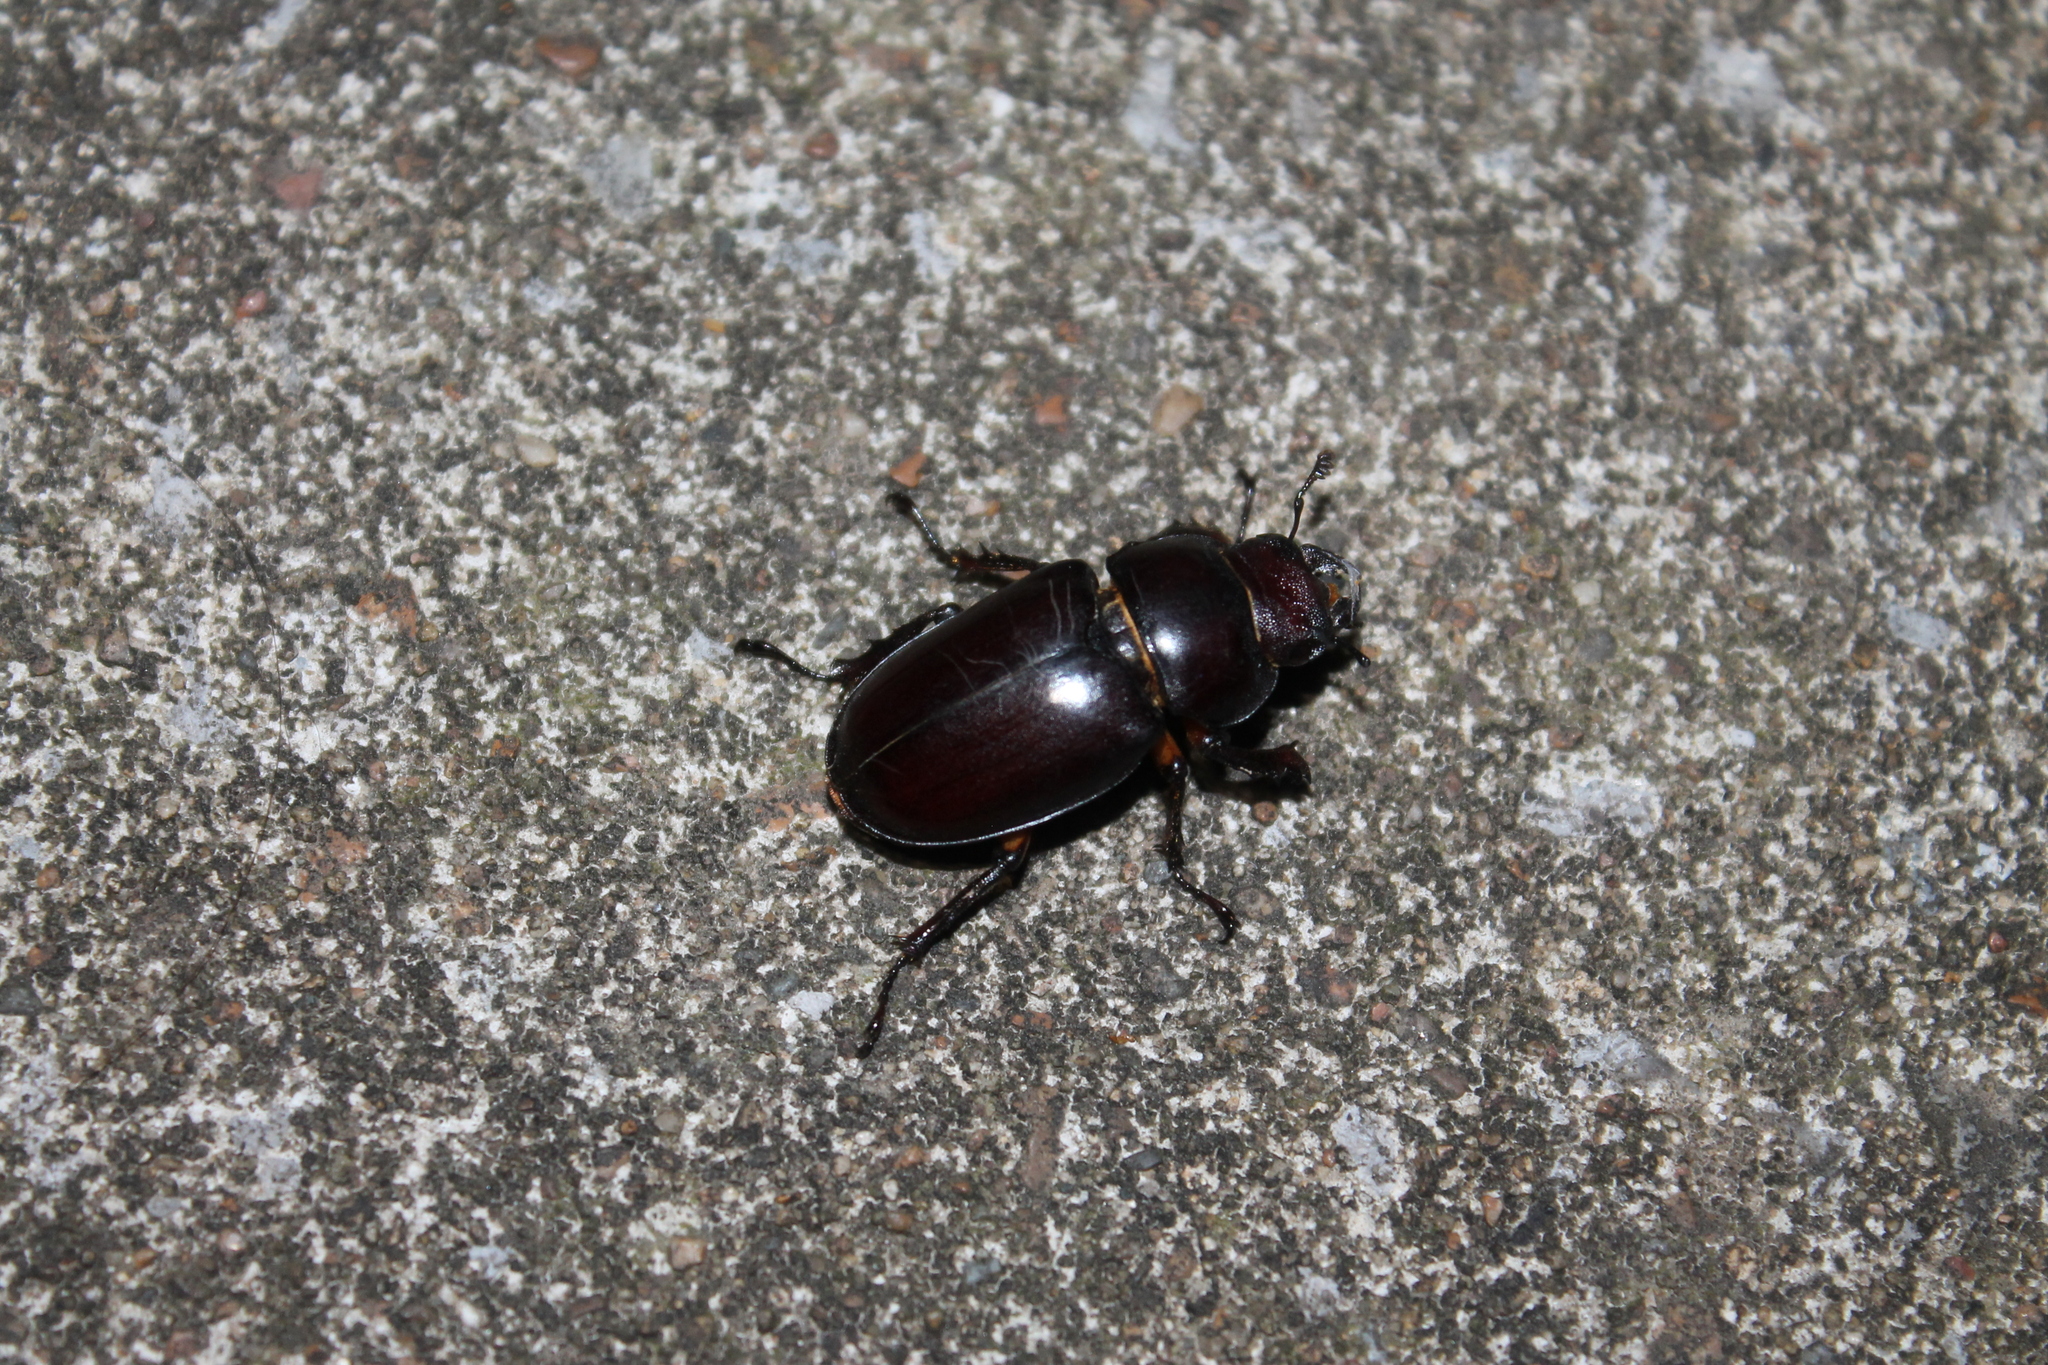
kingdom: Animalia
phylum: Arthropoda
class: Insecta
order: Coleoptera
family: Lucanidae
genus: Lucanus
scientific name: Lucanus capreolus
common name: Stag beetle
